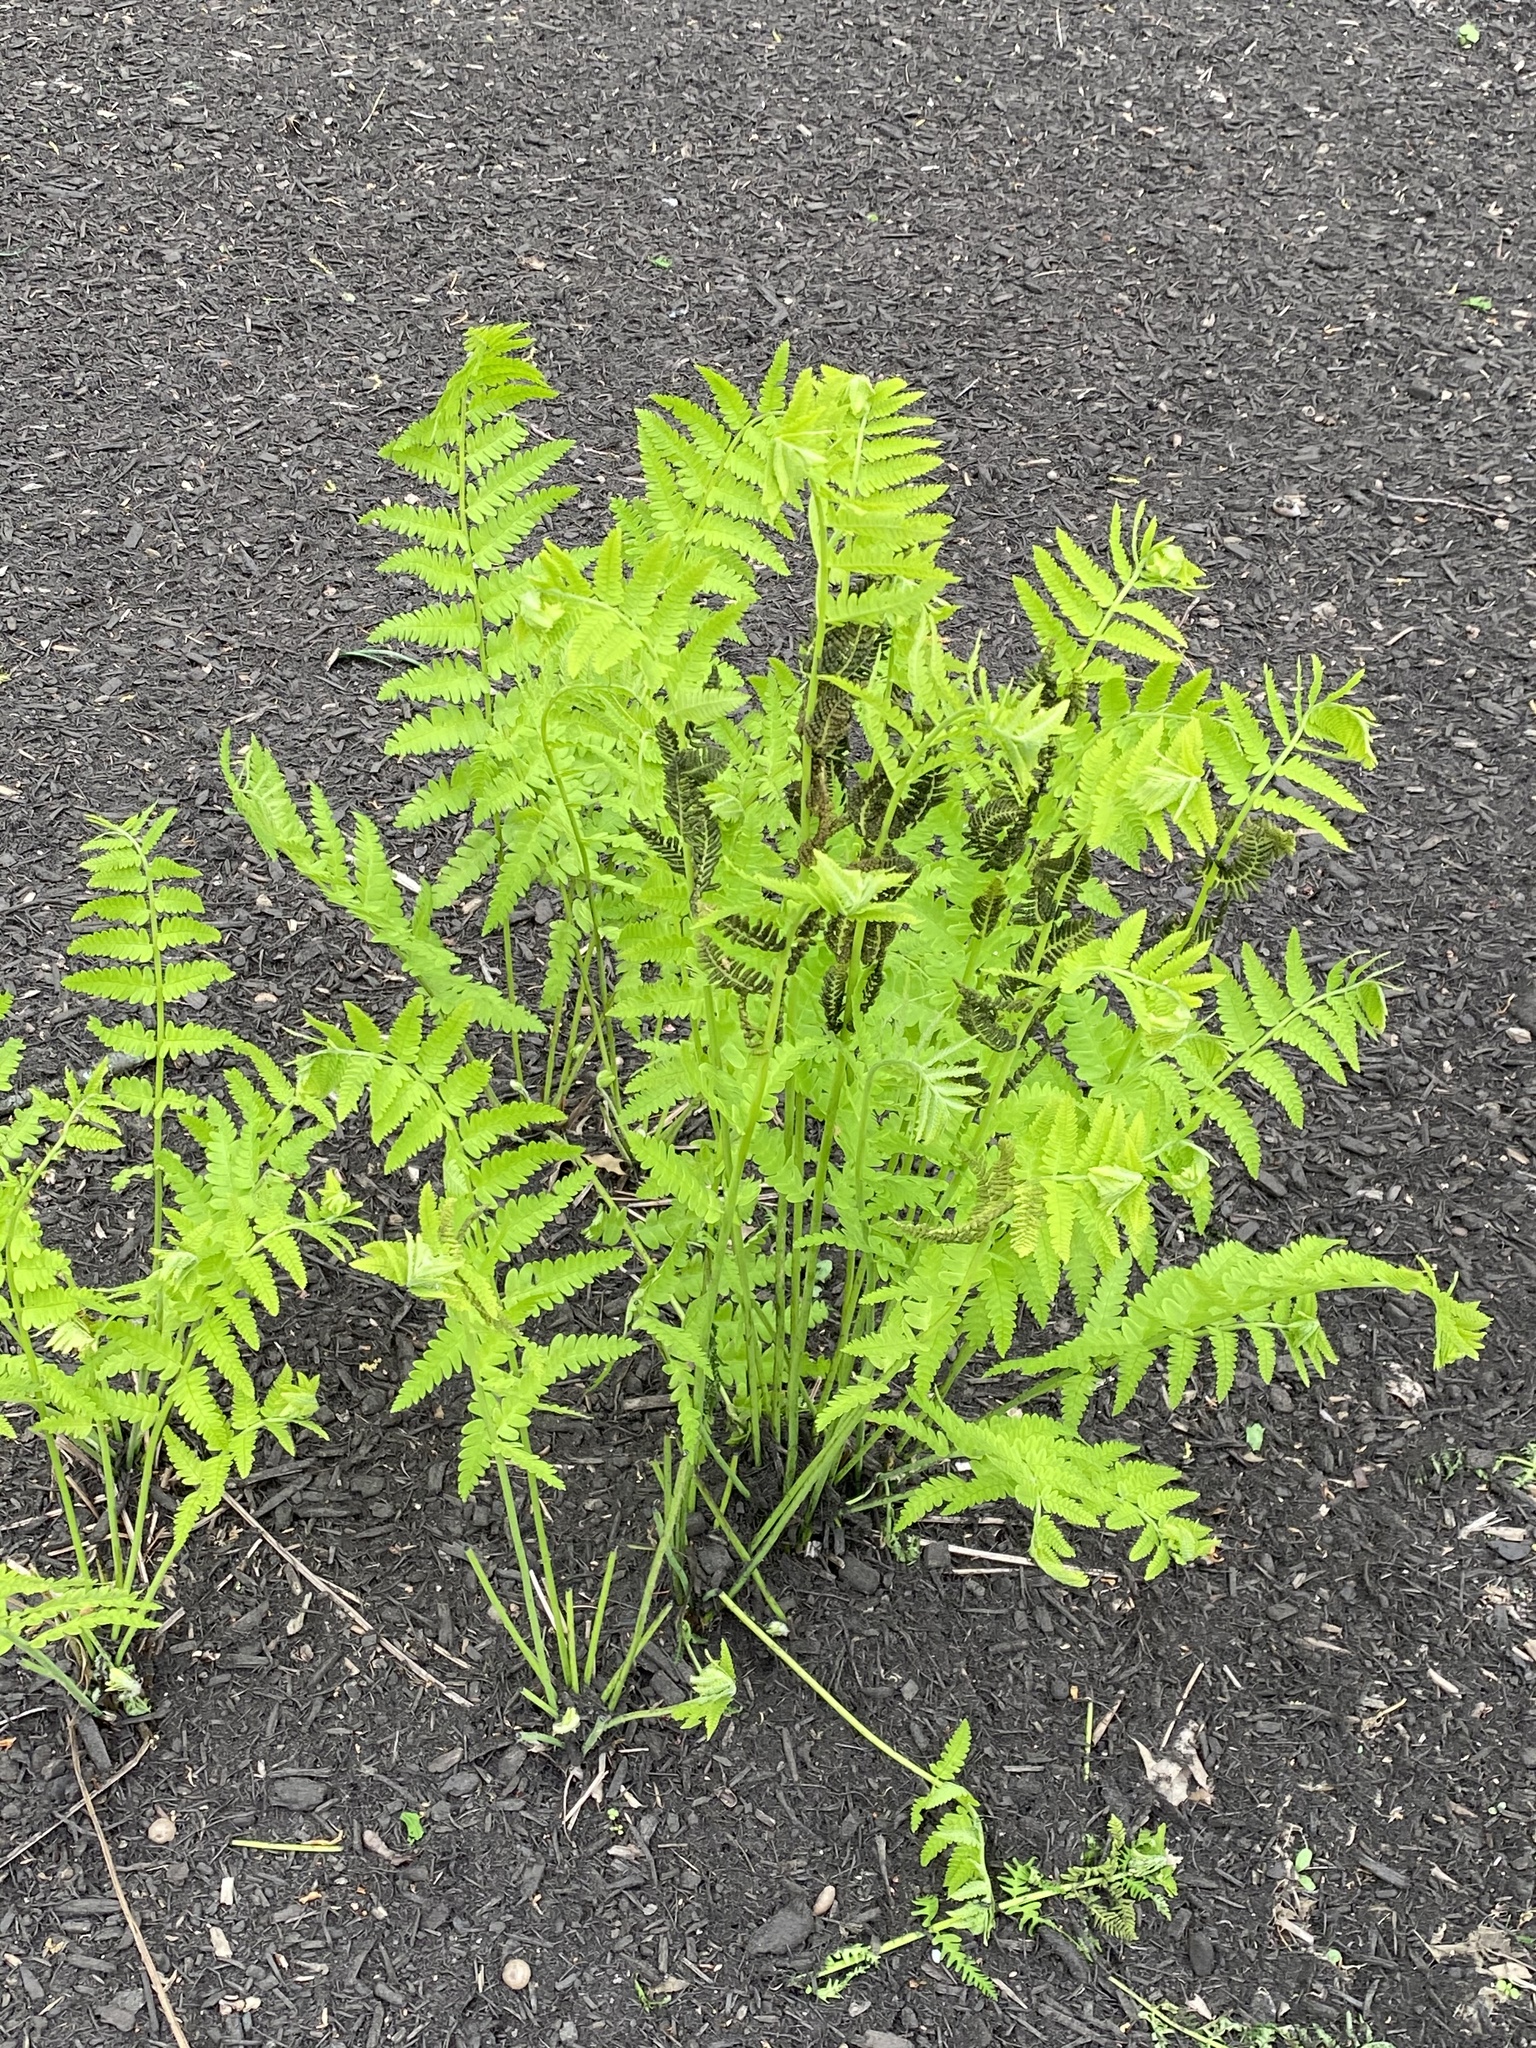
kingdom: Plantae
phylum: Tracheophyta
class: Polypodiopsida
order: Osmundales
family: Osmundaceae
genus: Claytosmunda
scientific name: Claytosmunda claytoniana
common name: Clayton's fern
